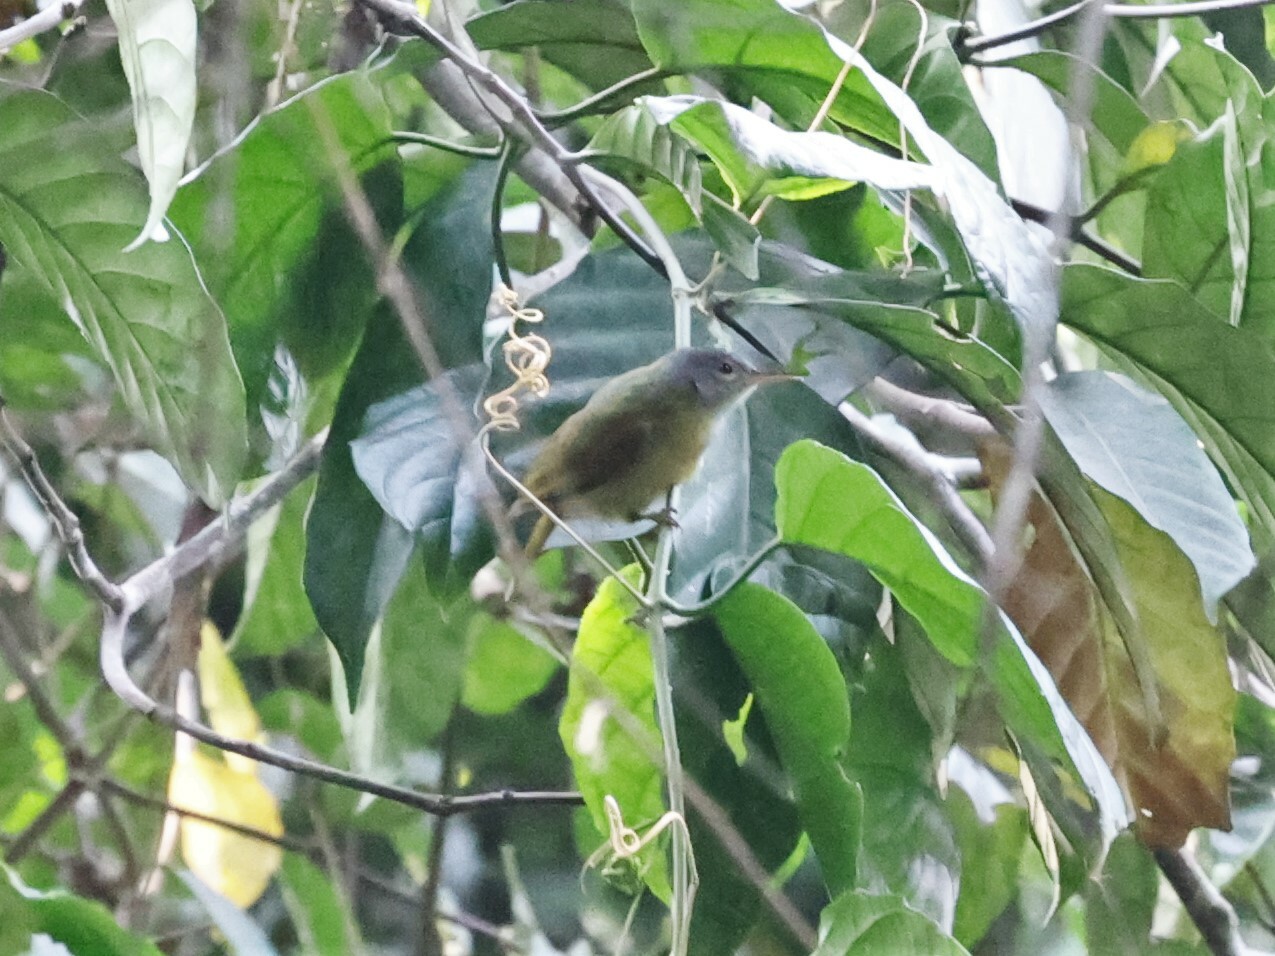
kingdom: Animalia
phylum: Chordata
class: Aves
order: Passeriformes
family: Nectariniidae
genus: Deleornis
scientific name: Deleornis axillaris
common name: Grey-headed sunbird
